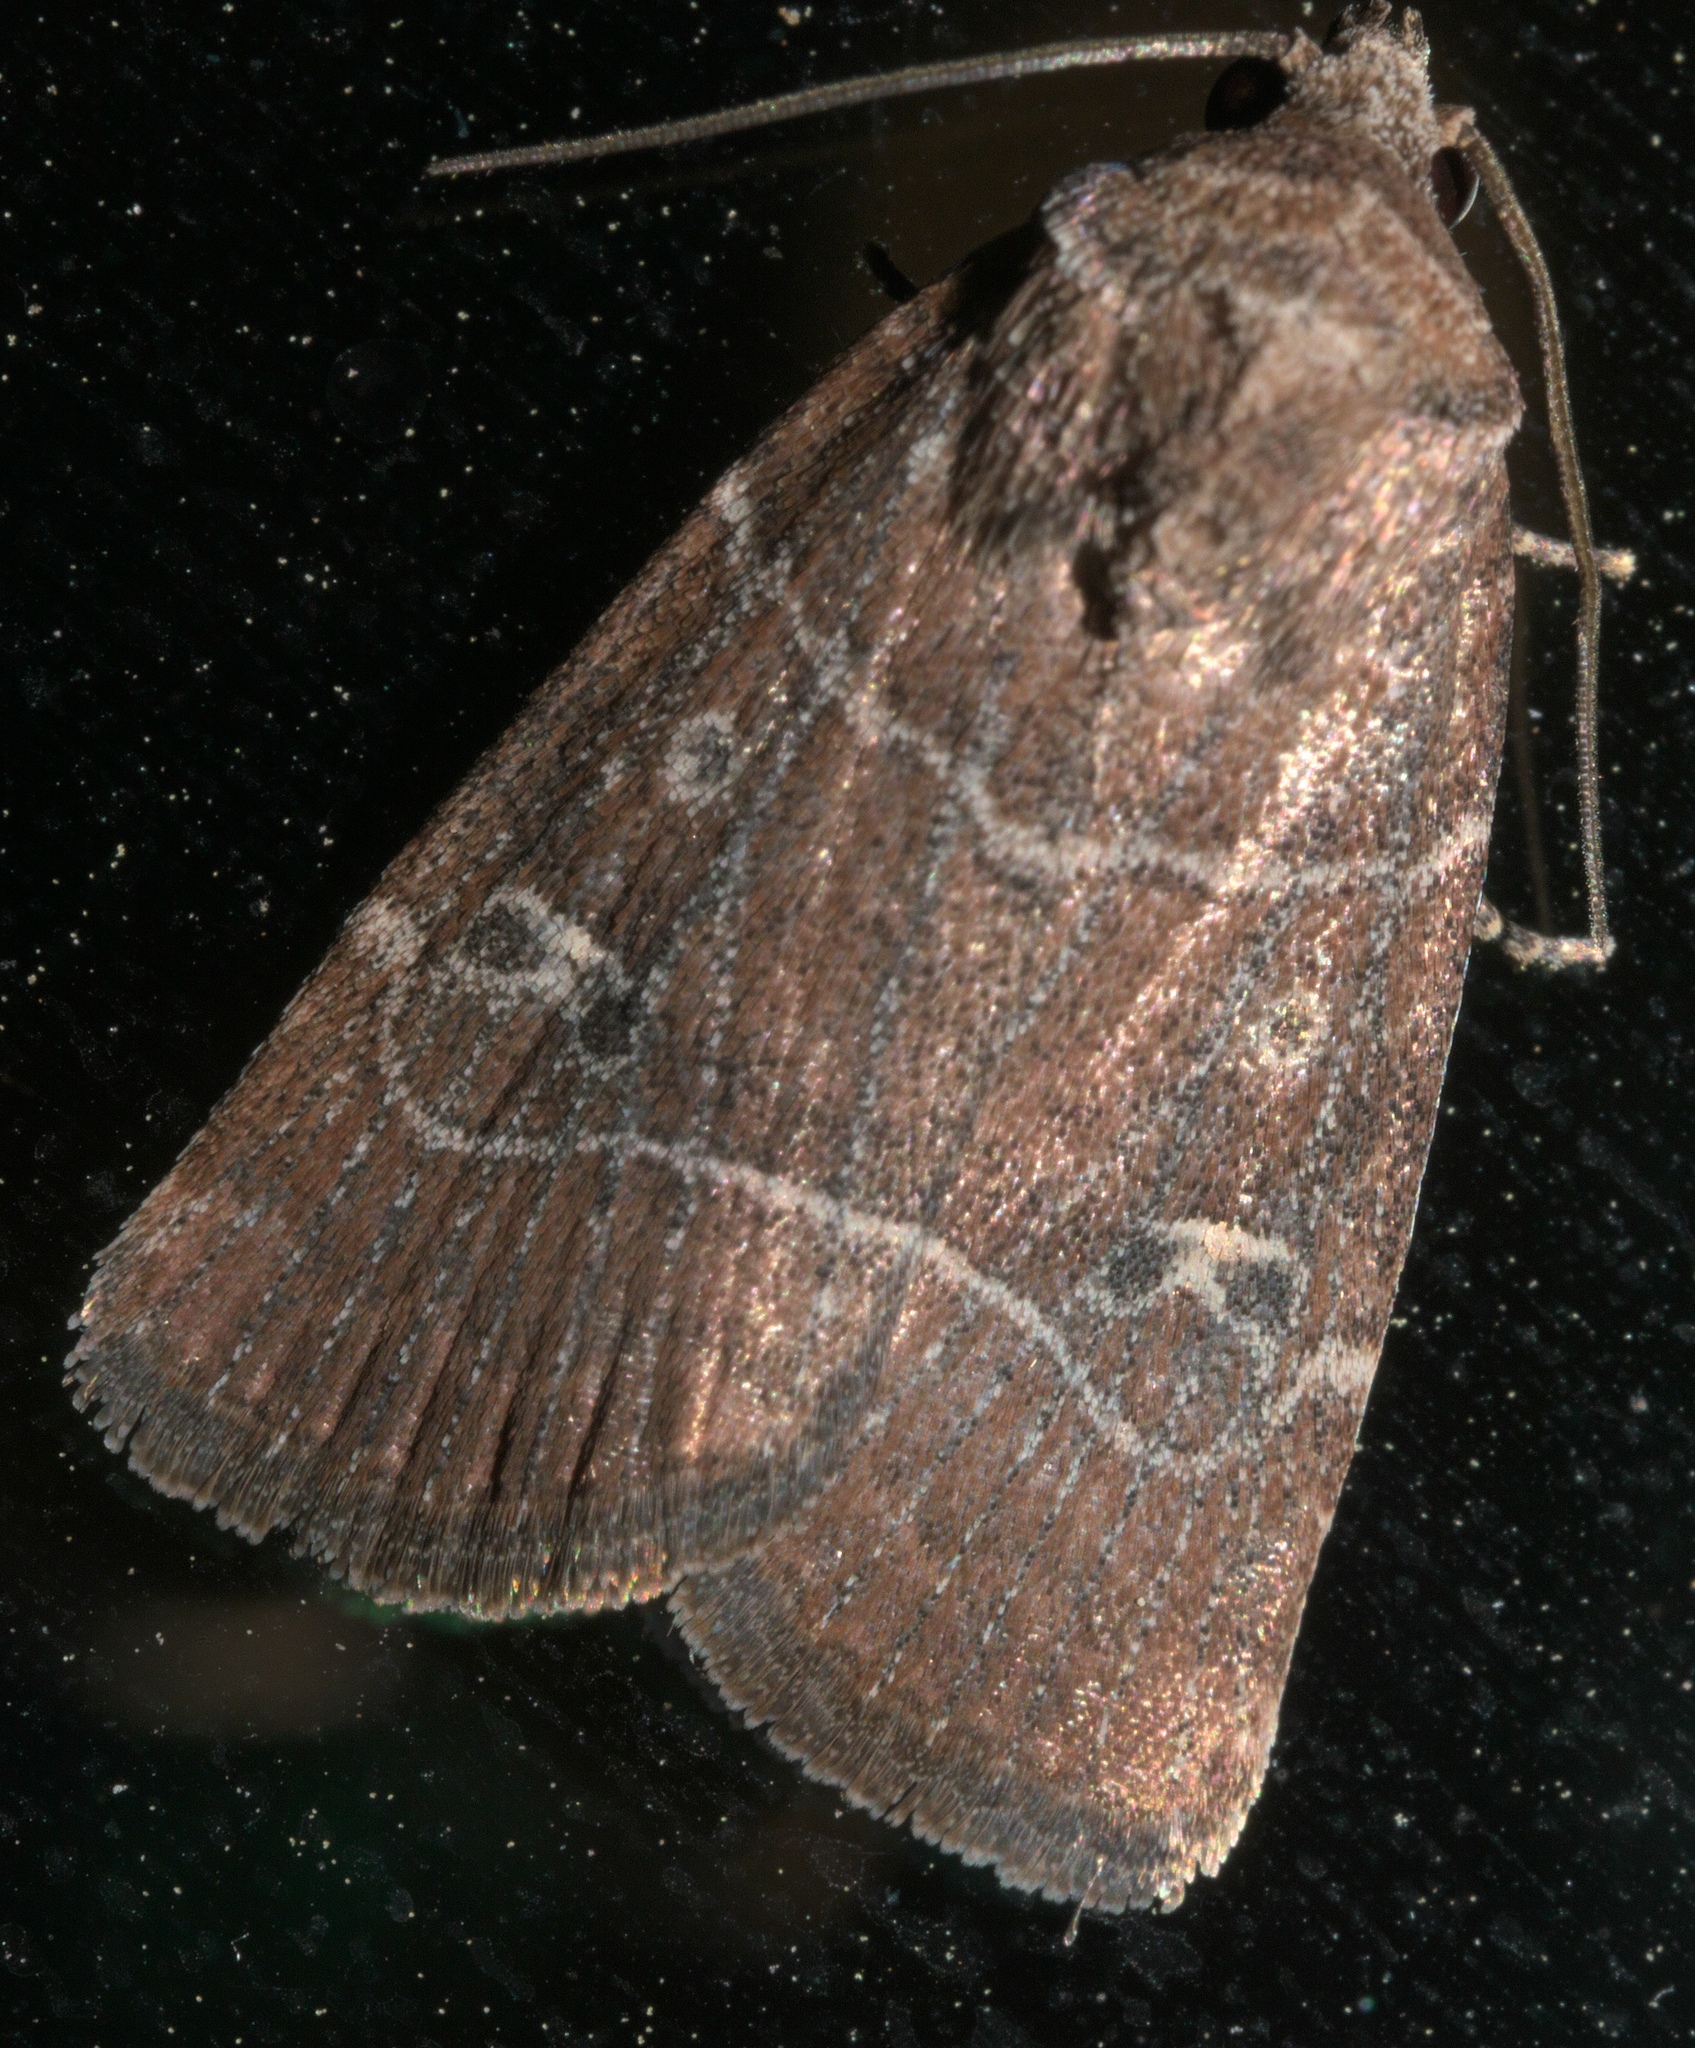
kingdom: Animalia
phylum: Arthropoda
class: Insecta
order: Lepidoptera
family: Noctuidae
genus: Elaphria
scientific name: Elaphria grata
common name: Grateful midget moth
